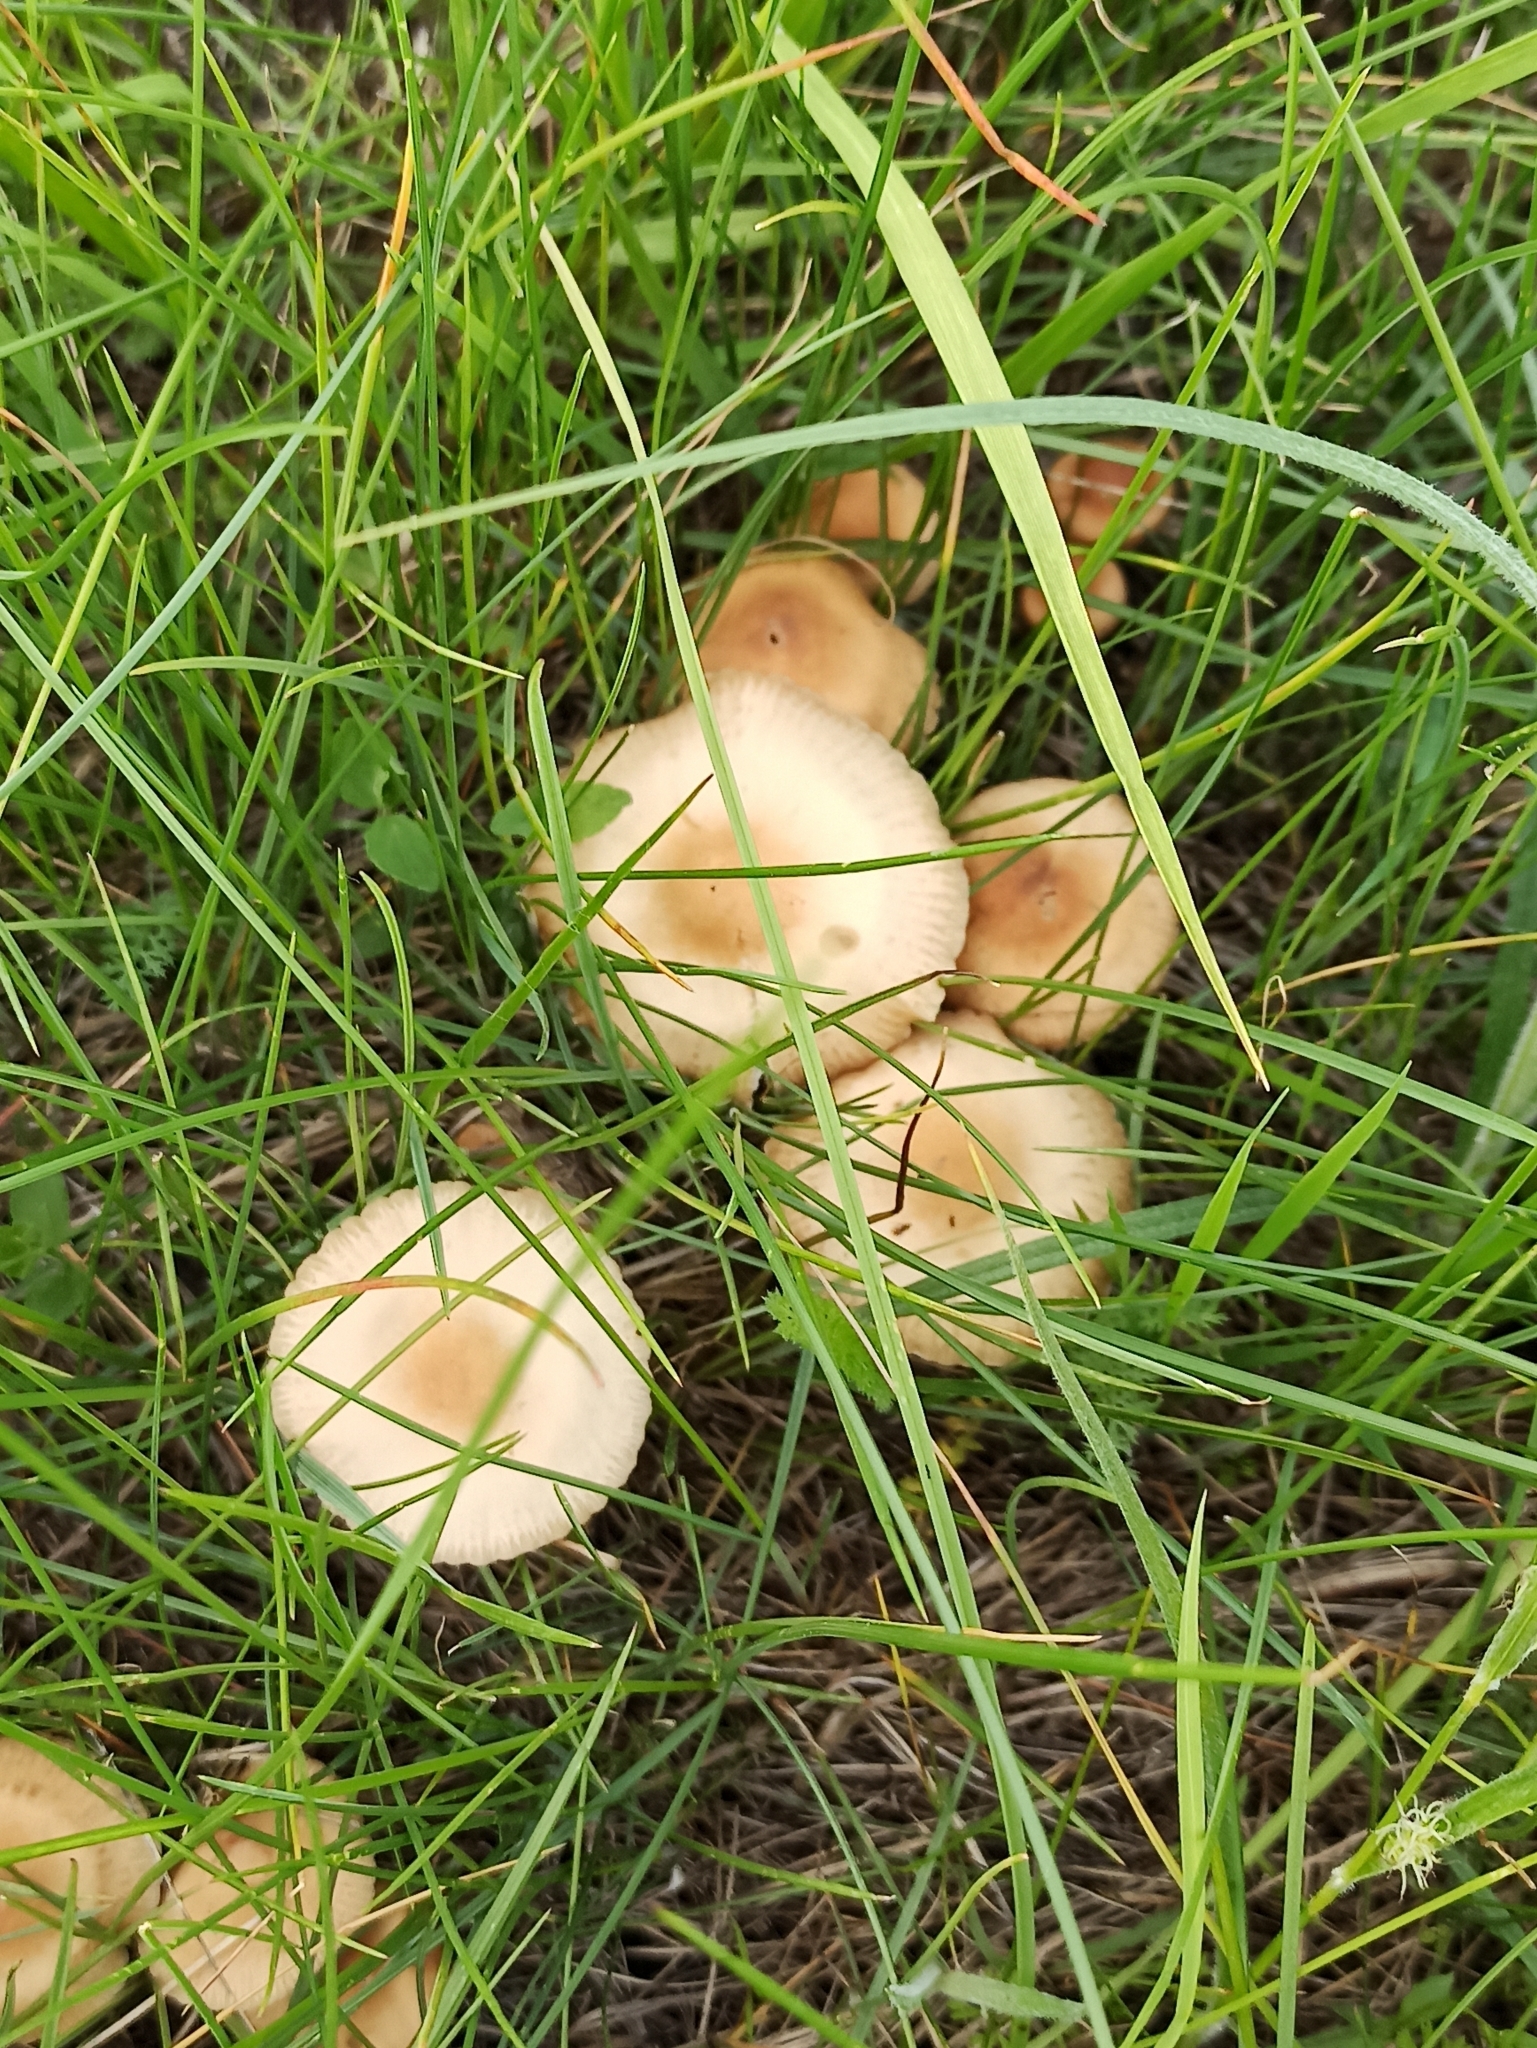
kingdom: Fungi
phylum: Basidiomycota
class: Agaricomycetes
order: Agaricales
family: Marasmiaceae
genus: Marasmius
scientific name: Marasmius oreades
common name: Fairy ring champignon
